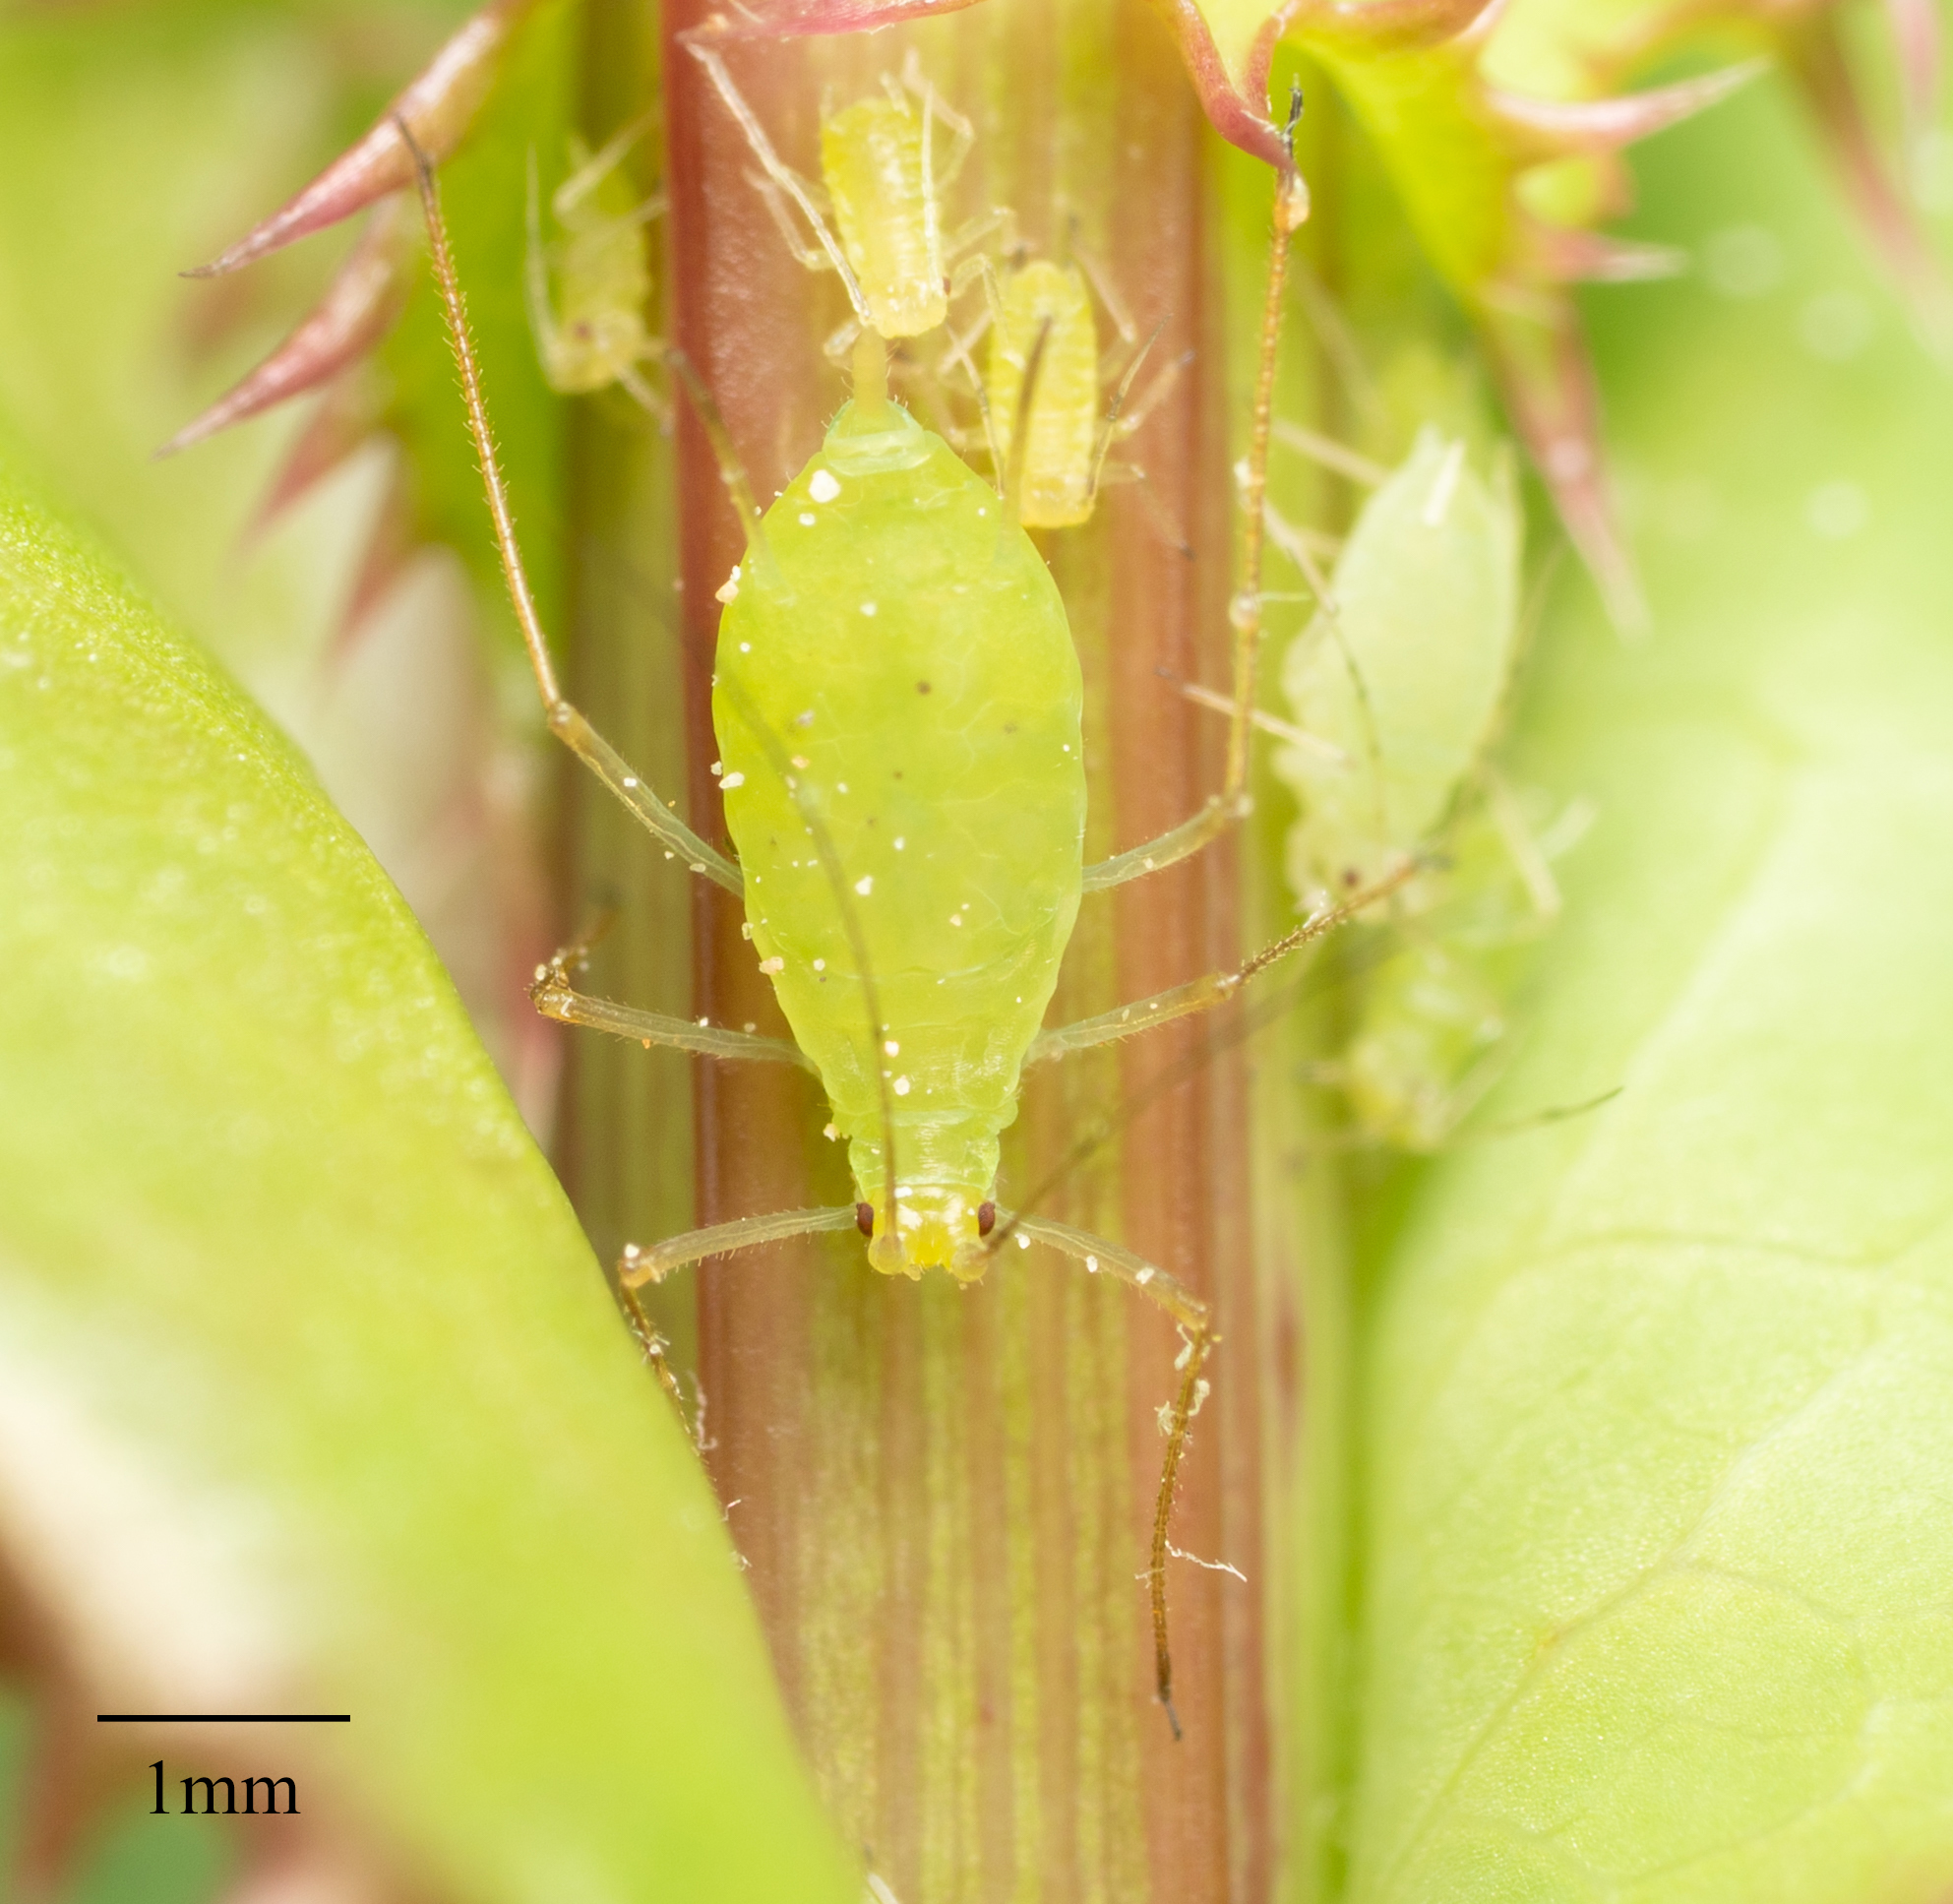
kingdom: Animalia
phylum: Arthropoda
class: Insecta
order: Hemiptera
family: Aphididae
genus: Macrosiphum
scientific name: Macrosiphum euphorbiae
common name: Potato aphid
